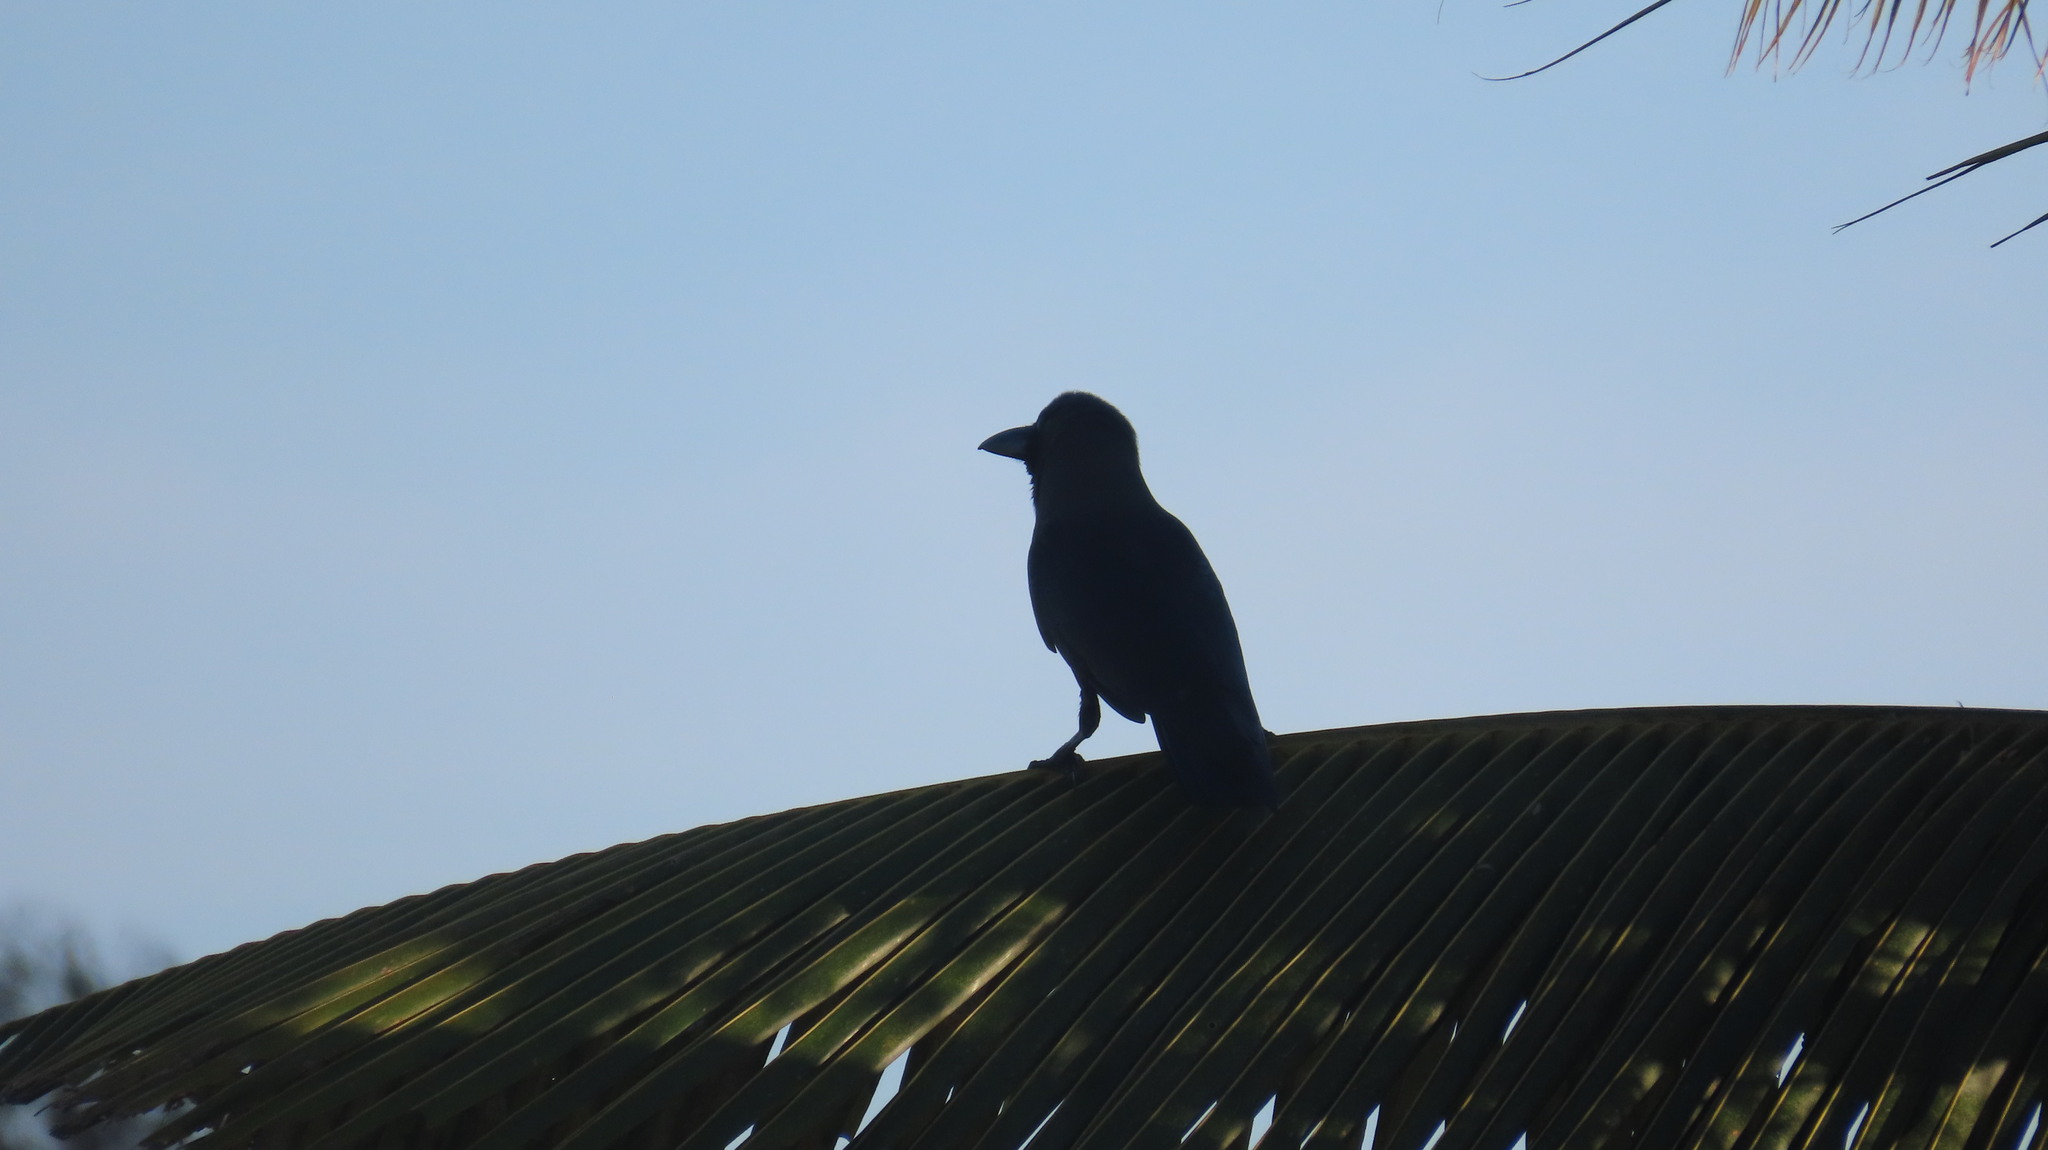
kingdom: Animalia
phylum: Chordata
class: Aves
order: Passeriformes
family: Corvidae
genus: Corvus
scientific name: Corvus splendens
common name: House crow
